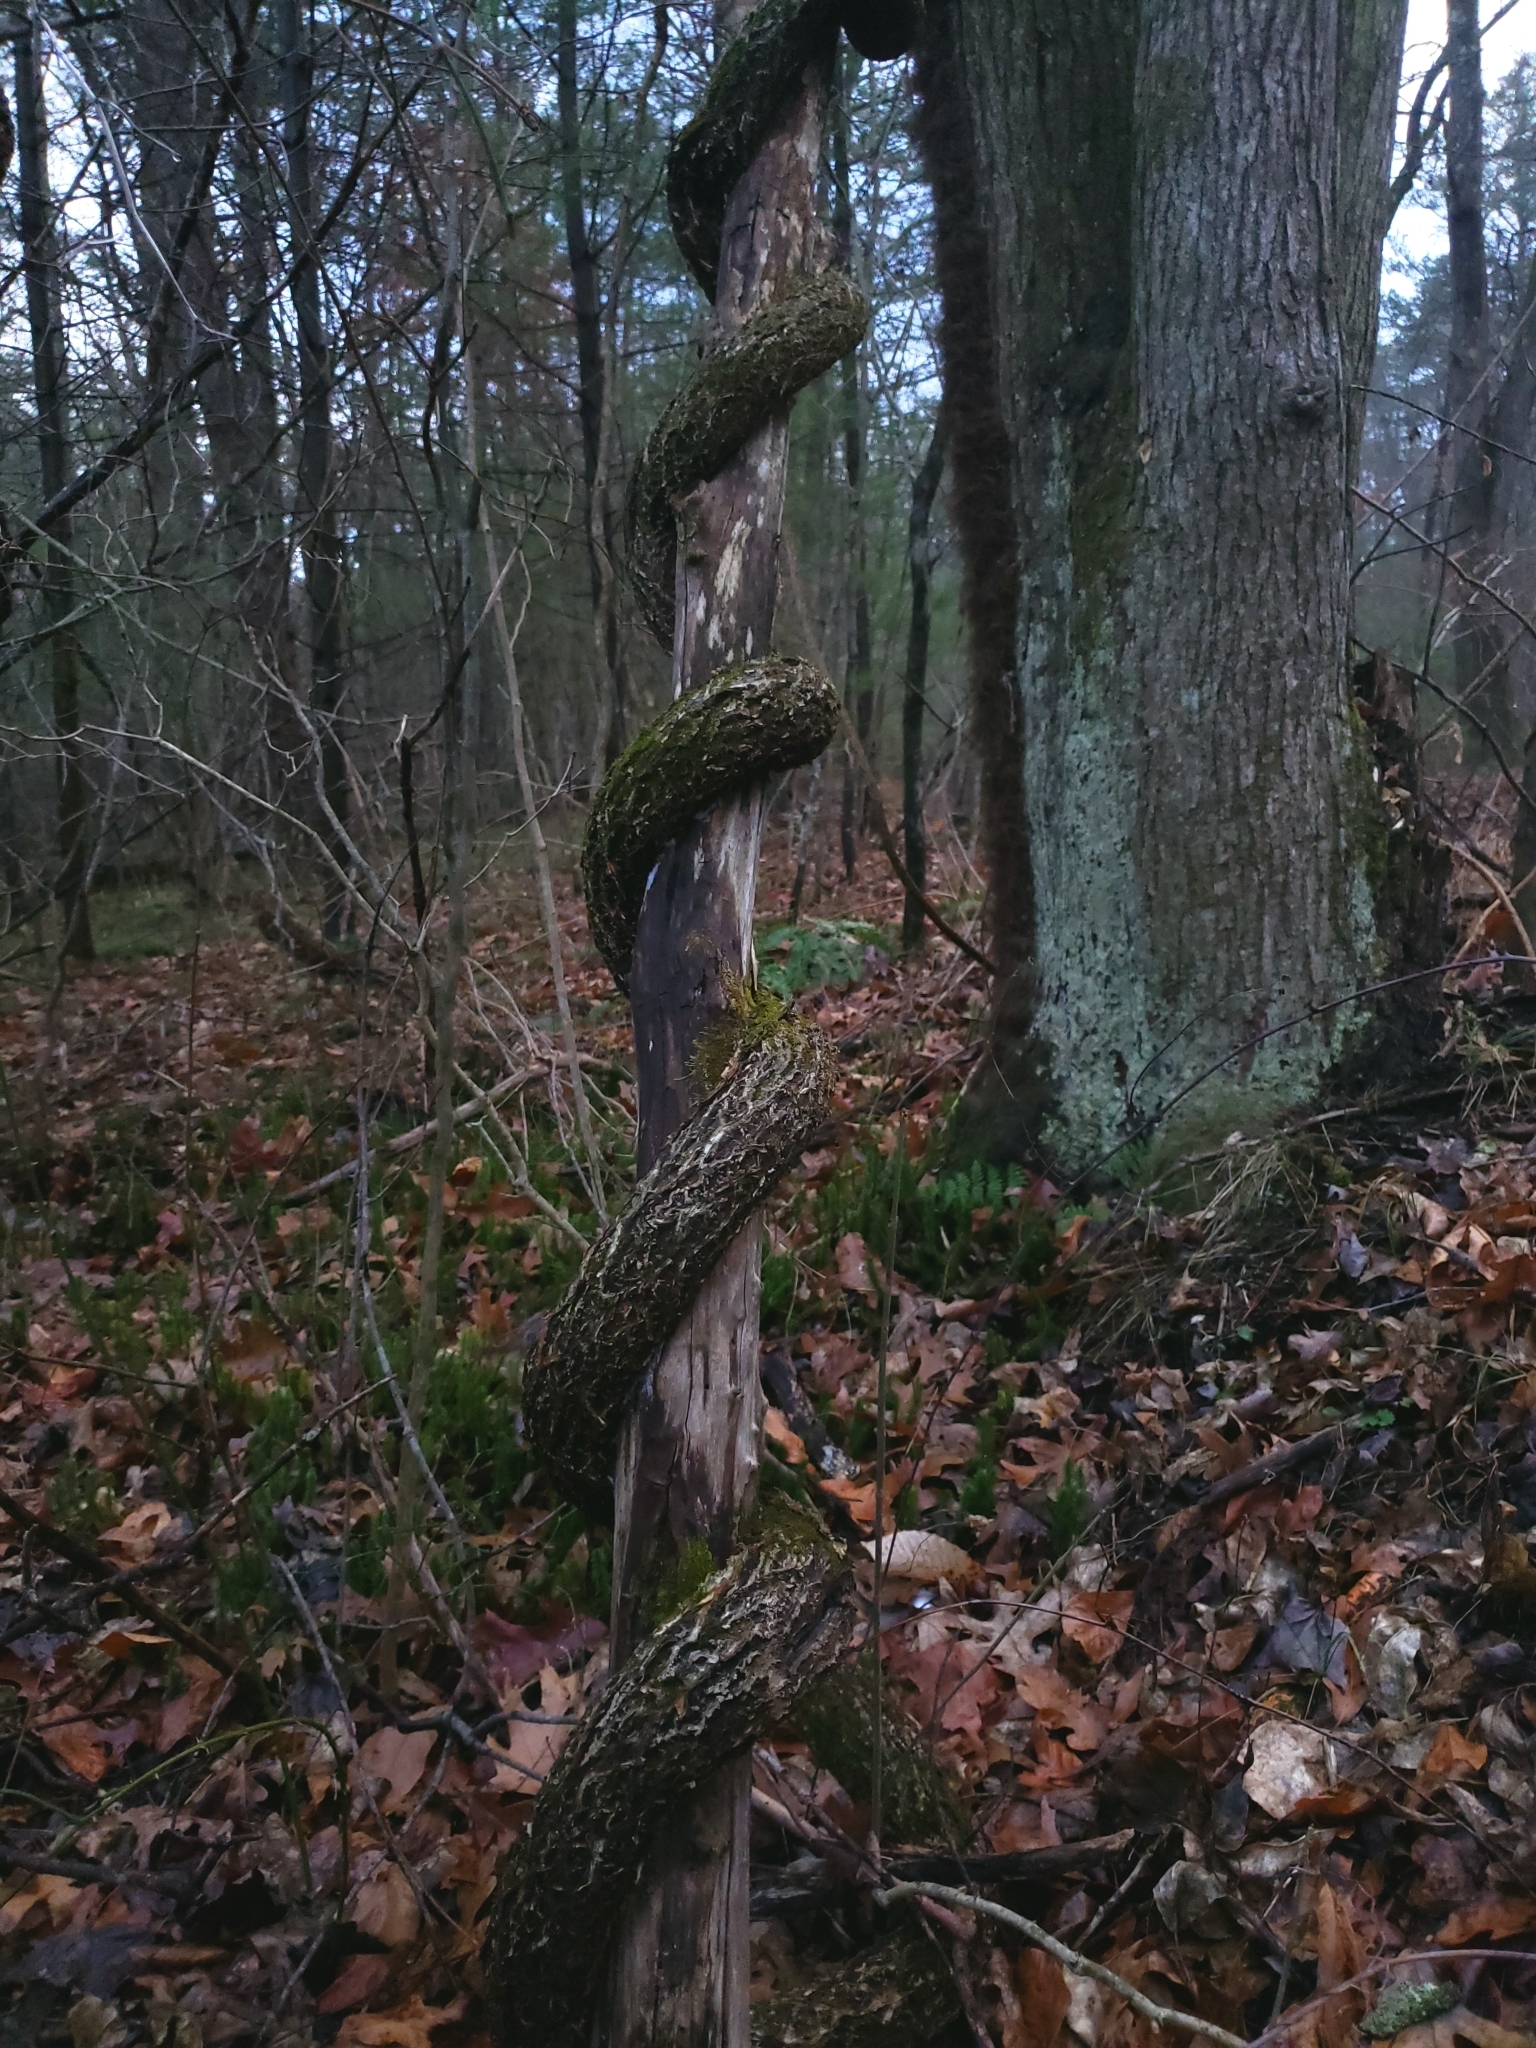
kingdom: Plantae
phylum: Tracheophyta
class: Magnoliopsida
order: Celastrales
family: Celastraceae
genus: Celastrus
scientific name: Celastrus orbiculatus
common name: Oriental bittersweet
